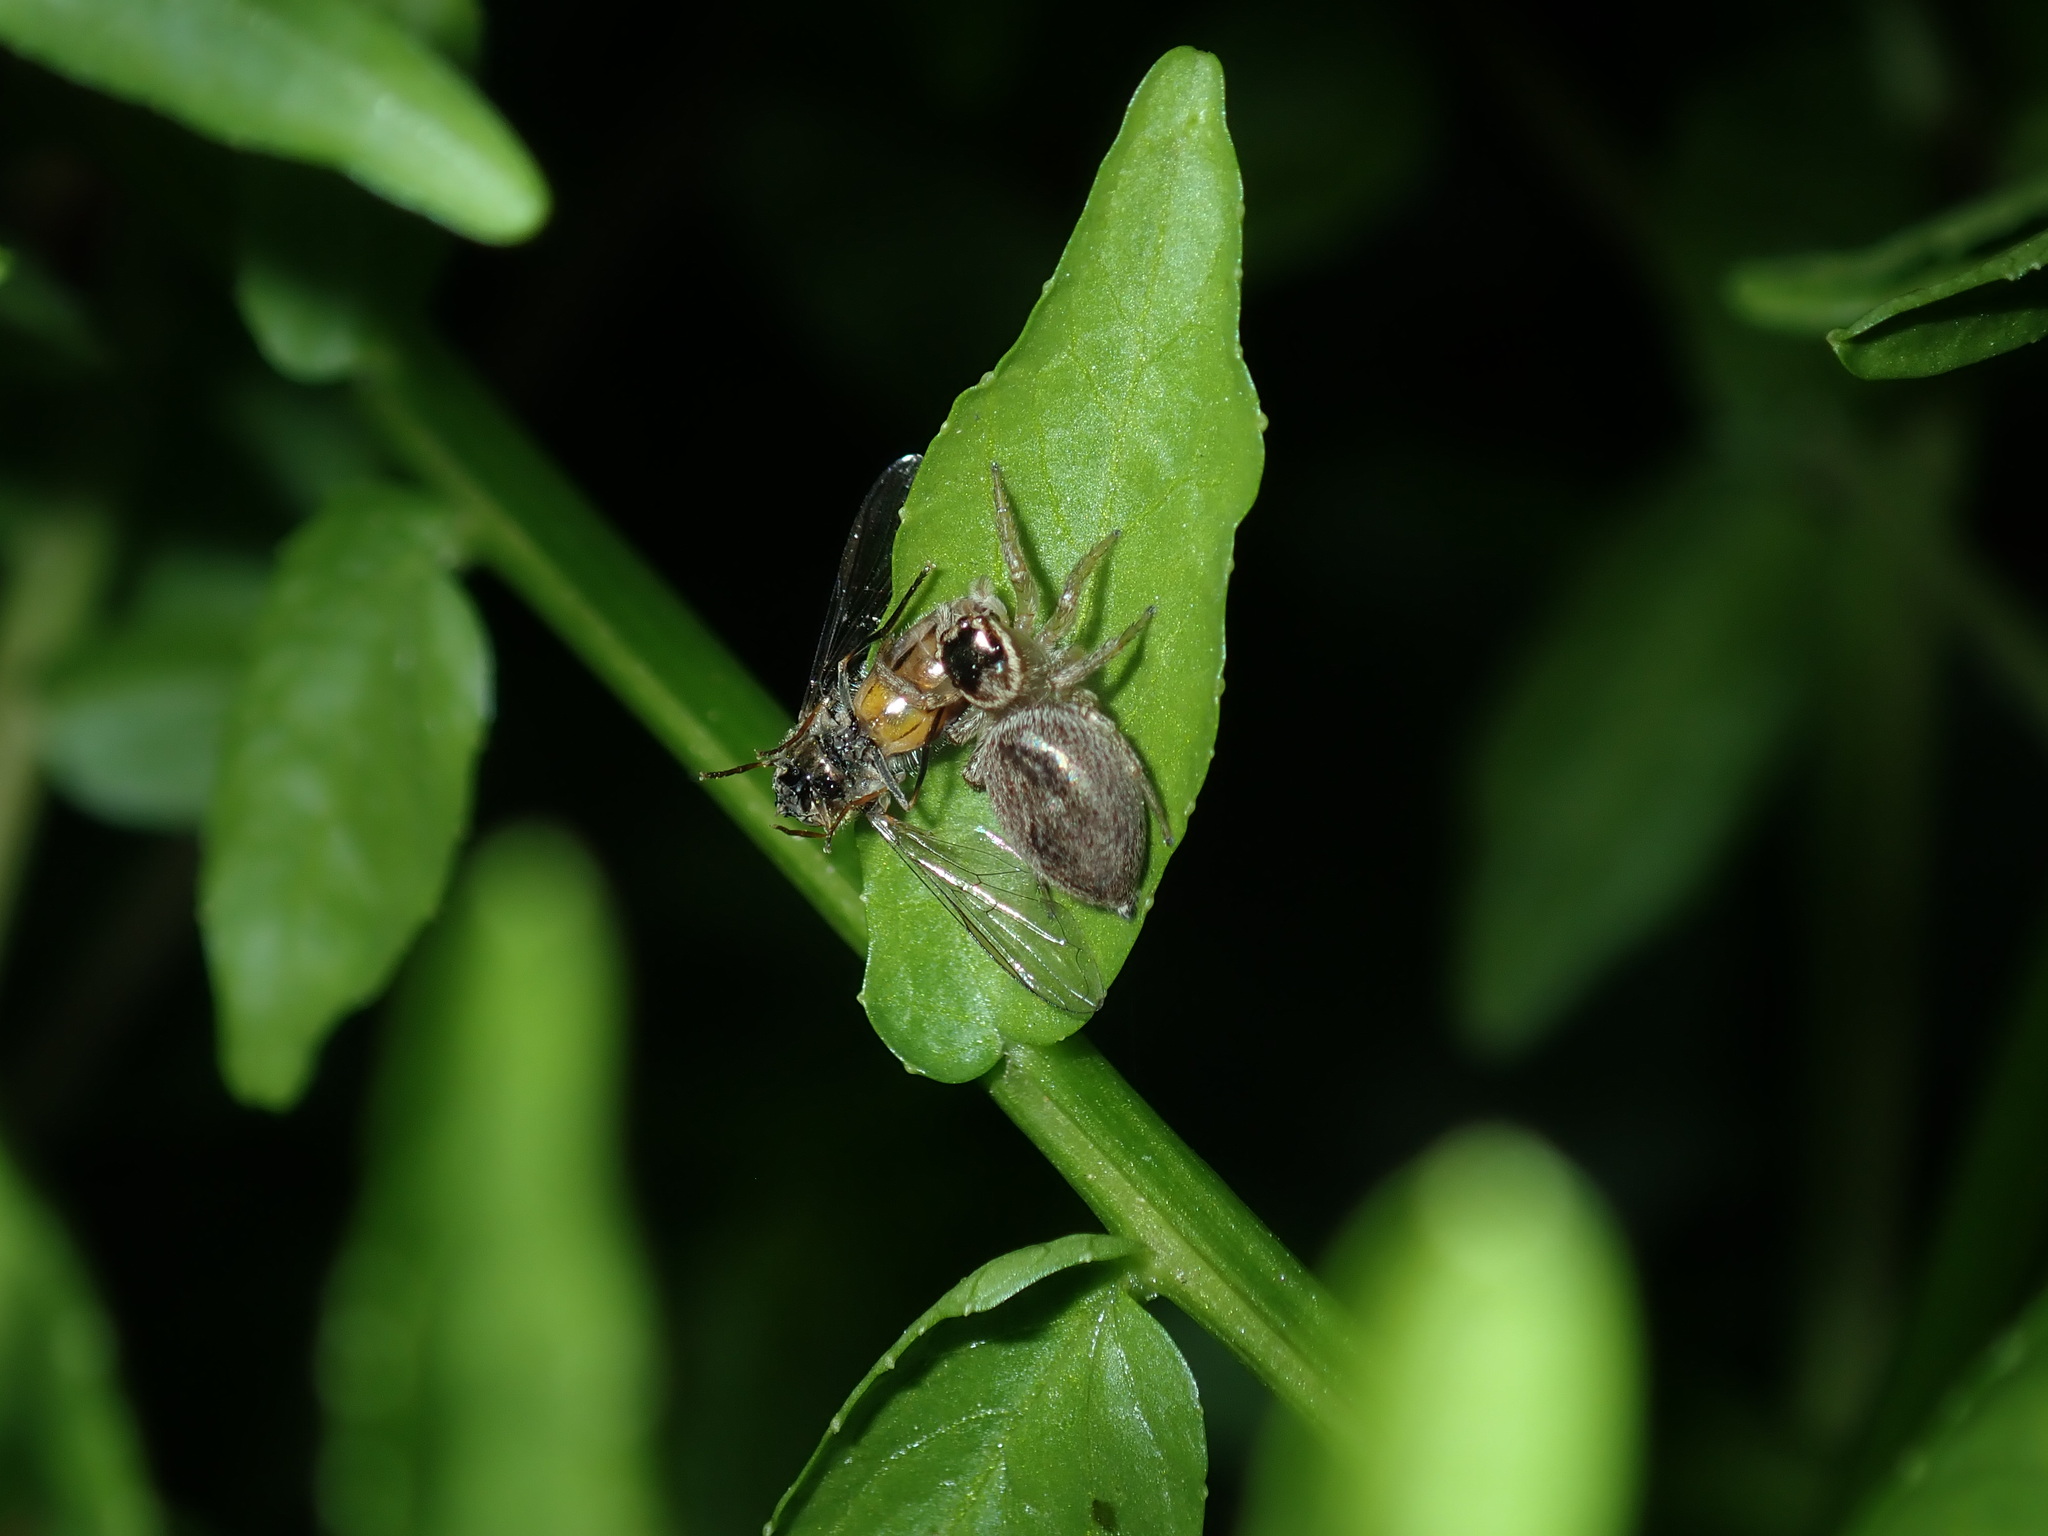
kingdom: Animalia
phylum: Arthropoda
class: Arachnida
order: Araneae
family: Salticidae
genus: Maratus
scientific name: Maratus griseus
